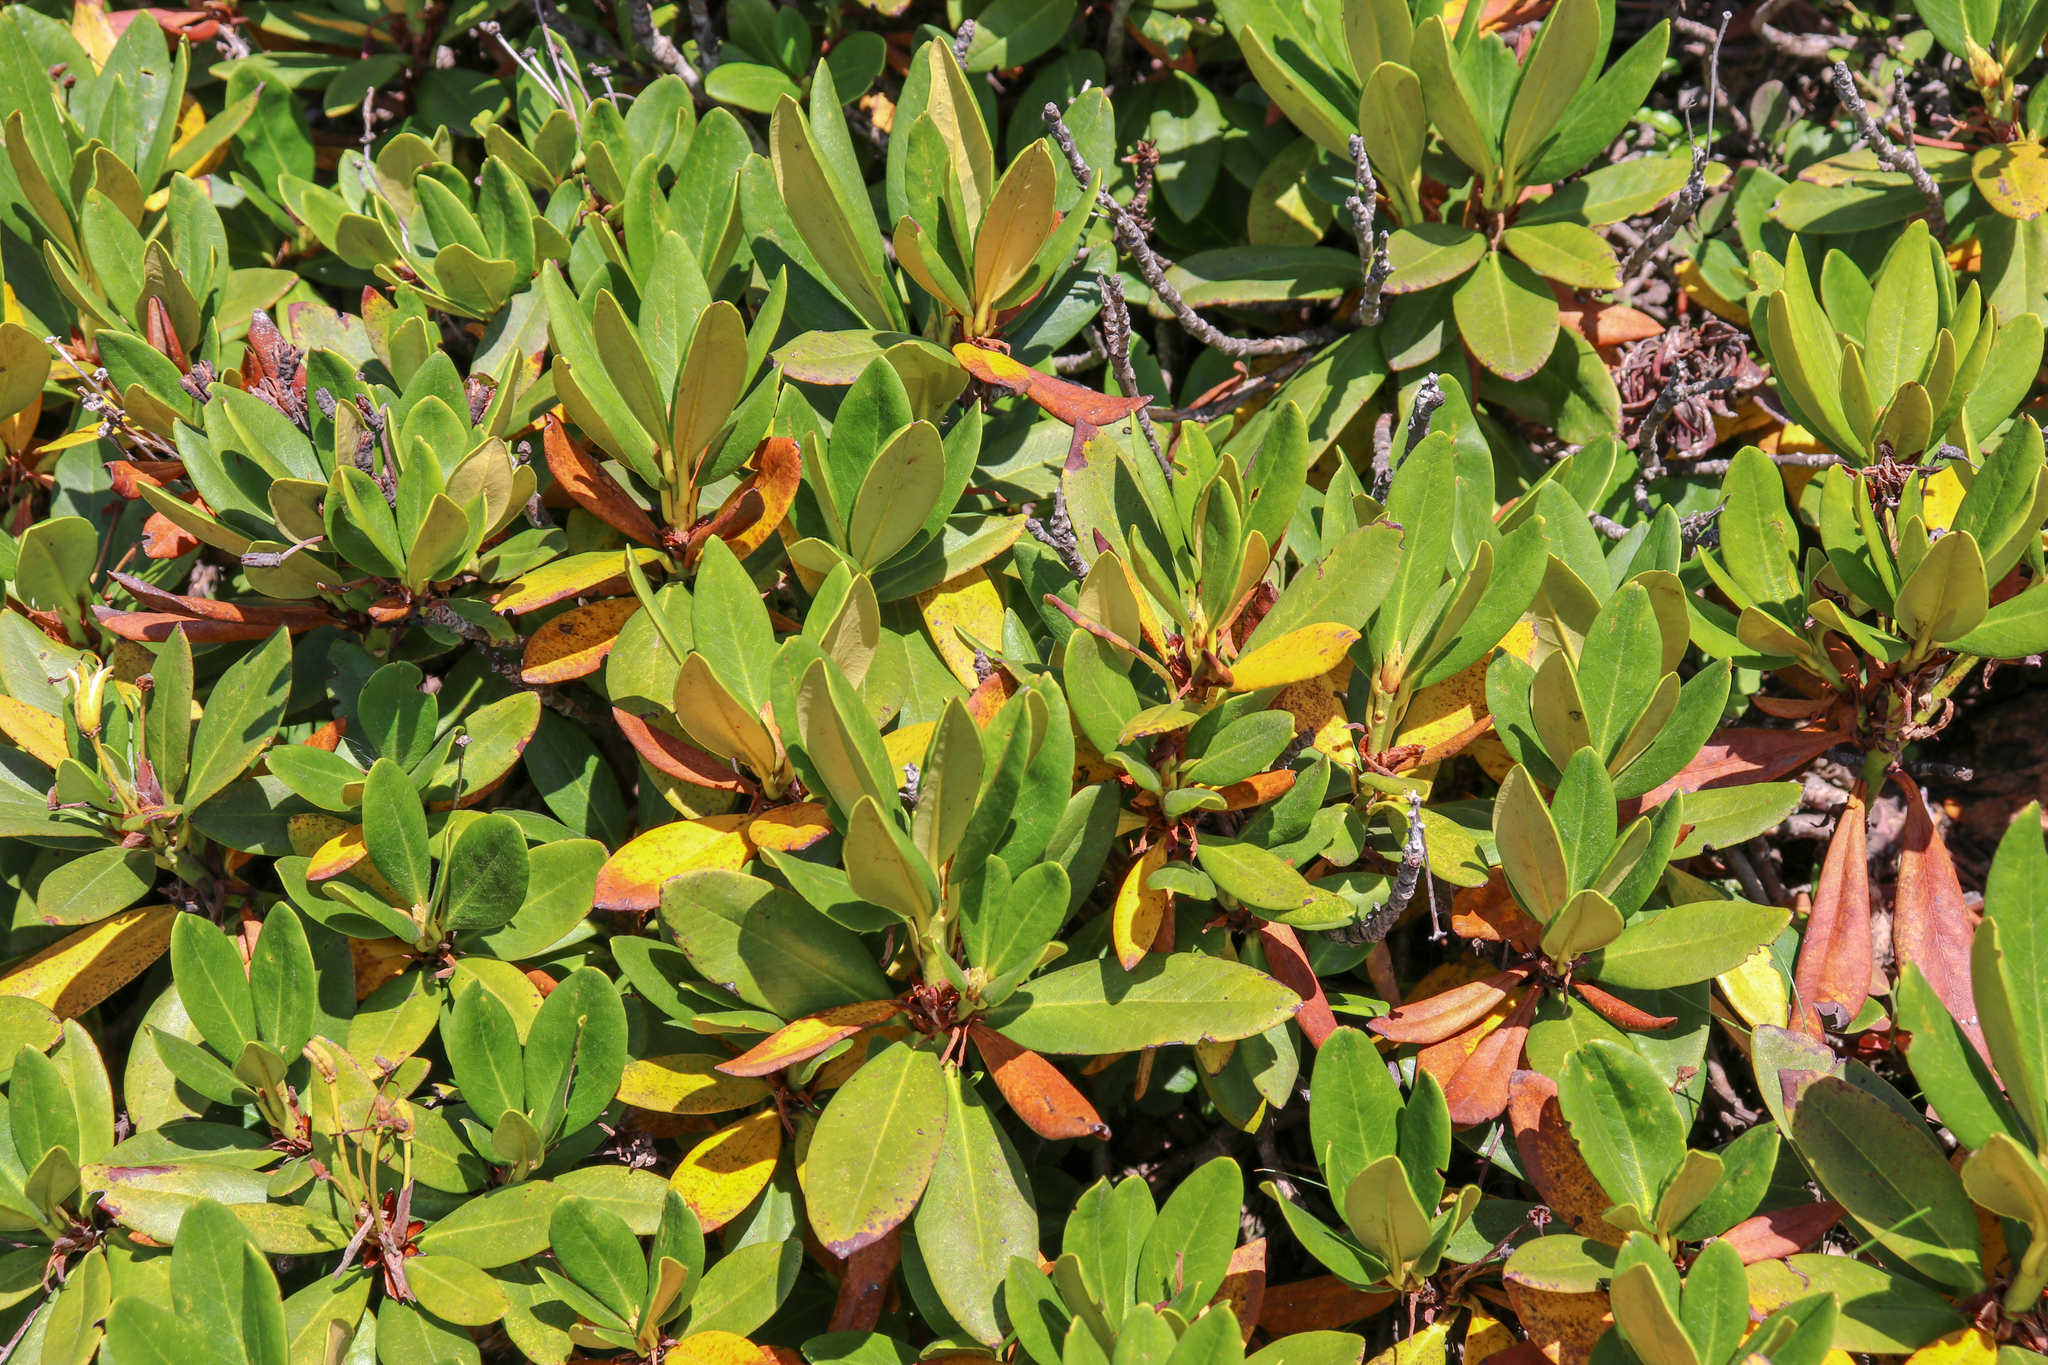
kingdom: Plantae
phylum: Tracheophyta
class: Magnoliopsida
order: Ericales
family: Ericaceae
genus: Rhododendron
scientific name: Rhododendron caucasicum
